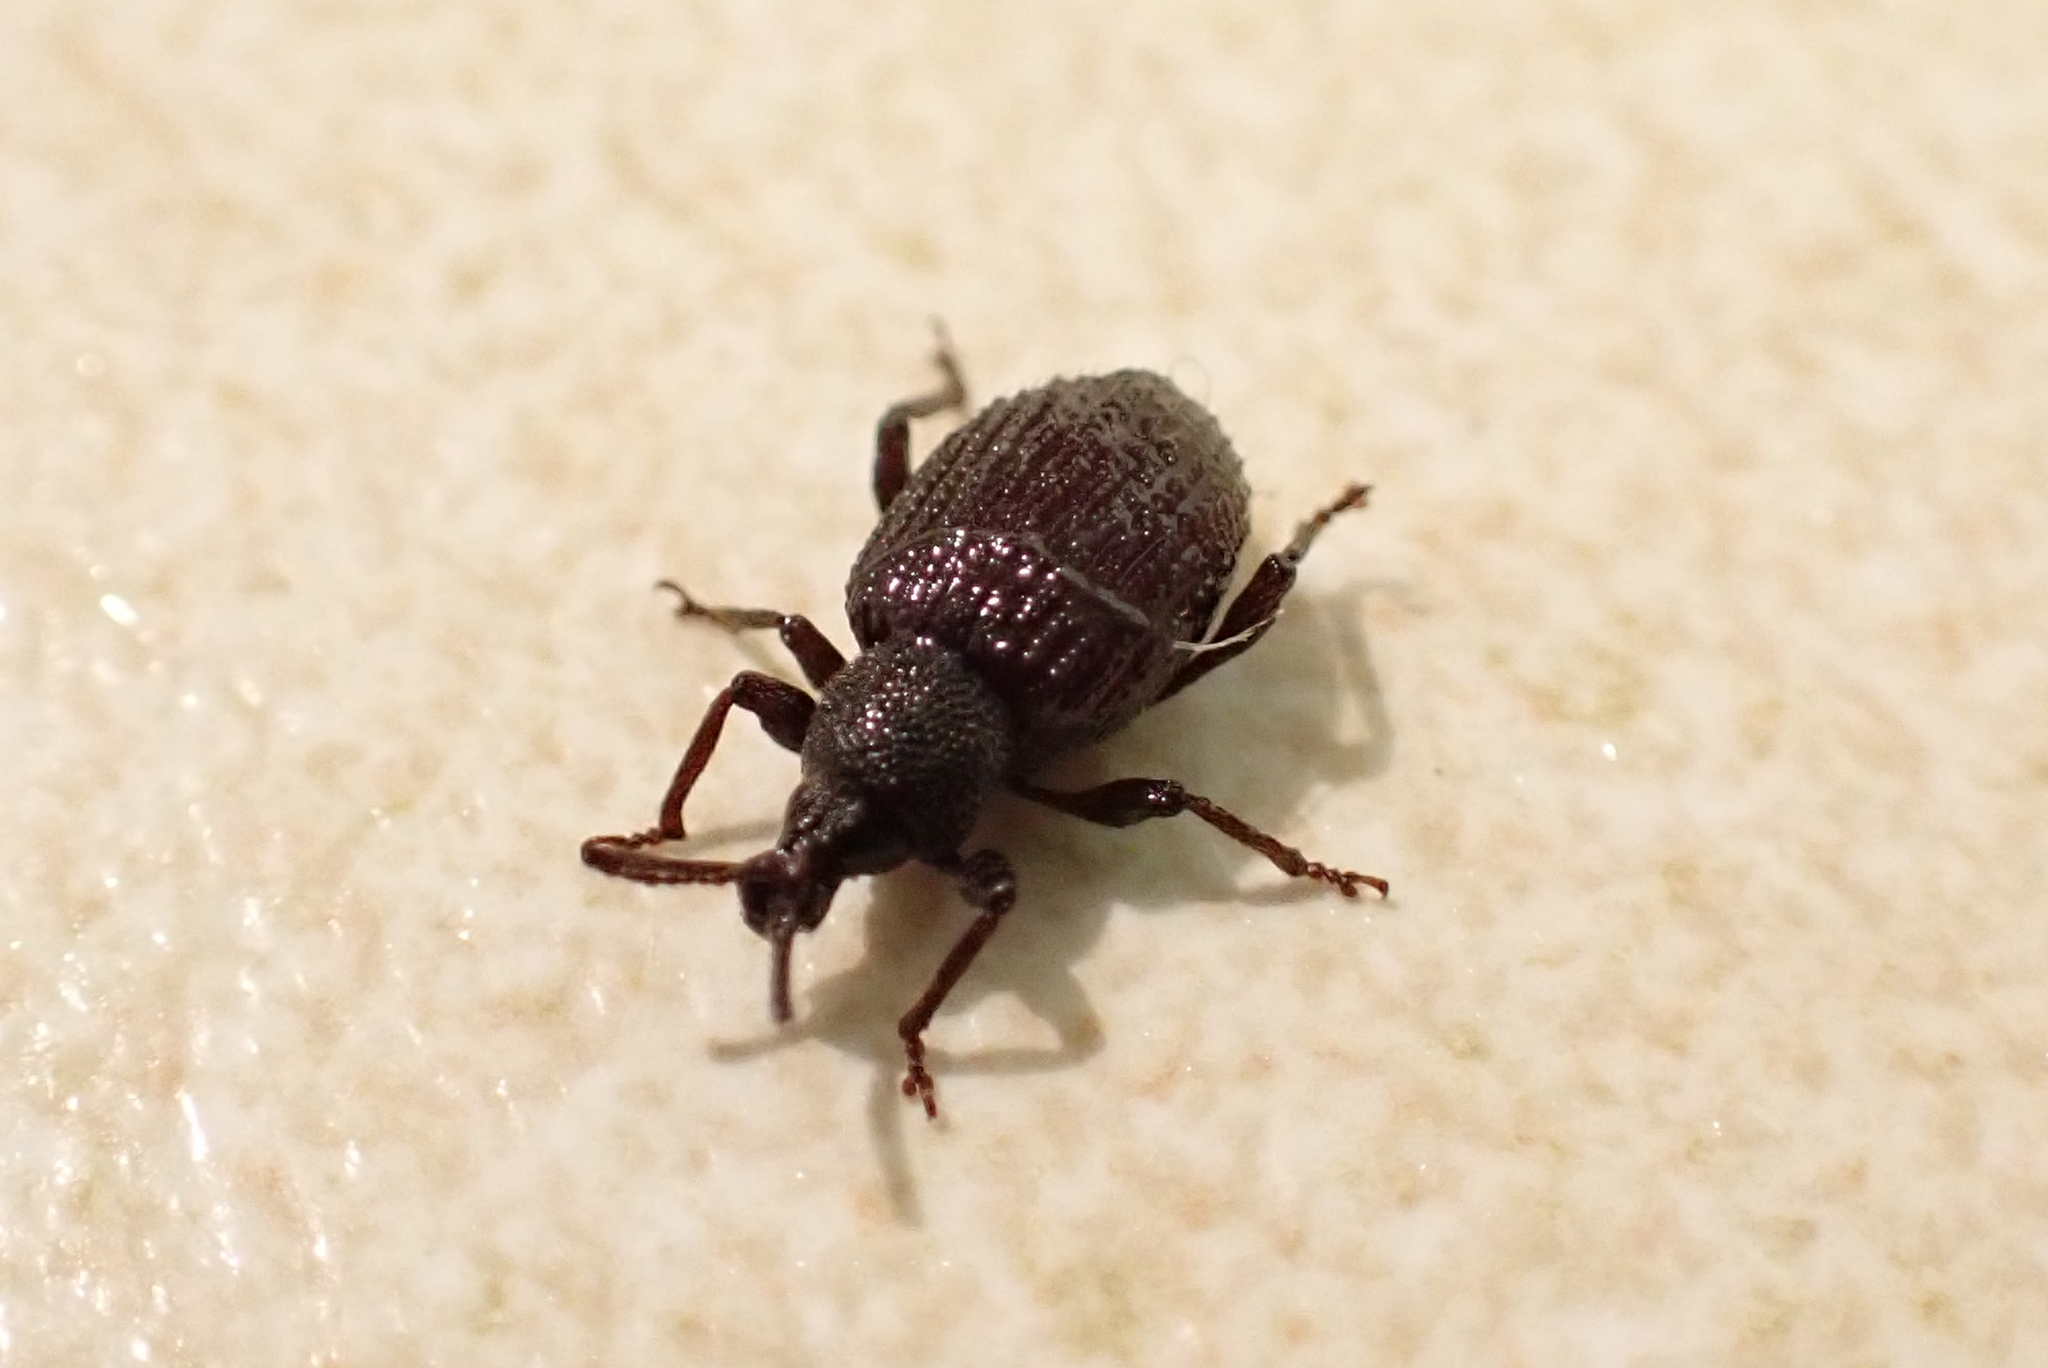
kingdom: Animalia
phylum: Arthropoda
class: Insecta
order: Coleoptera
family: Curculionidae
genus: Otiorhynchus
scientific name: Otiorhynchus rugosostriatus
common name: Weevil
